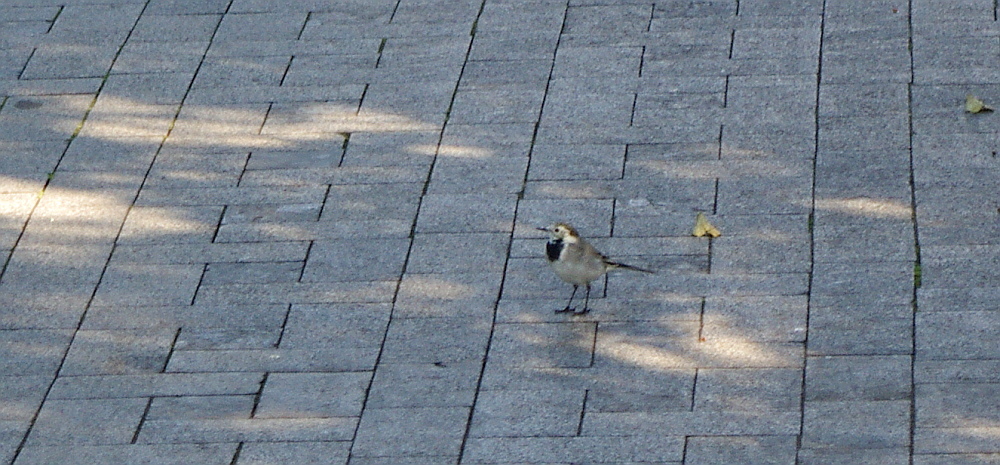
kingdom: Animalia
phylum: Chordata
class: Aves
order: Passeriformes
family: Motacillidae
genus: Motacilla
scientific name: Motacilla alba
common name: White wagtail
